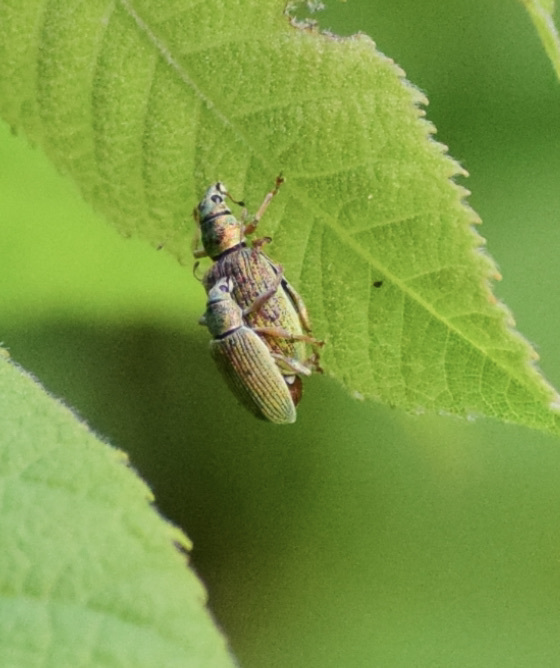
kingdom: Animalia
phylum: Arthropoda
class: Insecta
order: Coleoptera
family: Curculionidae
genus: Polydrusus
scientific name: Polydrusus formosus
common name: Weevil
